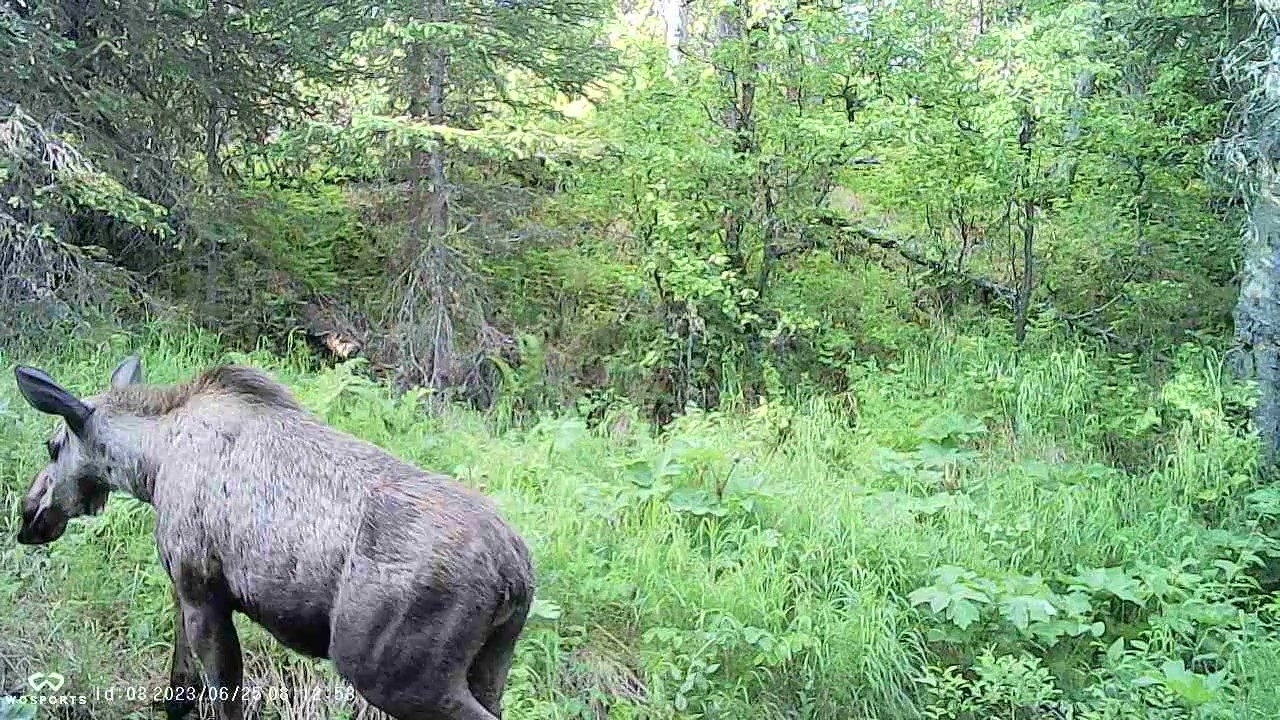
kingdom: Animalia
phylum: Chordata
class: Mammalia
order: Artiodactyla
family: Cervidae
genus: Alces
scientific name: Alces alces
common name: Moose
